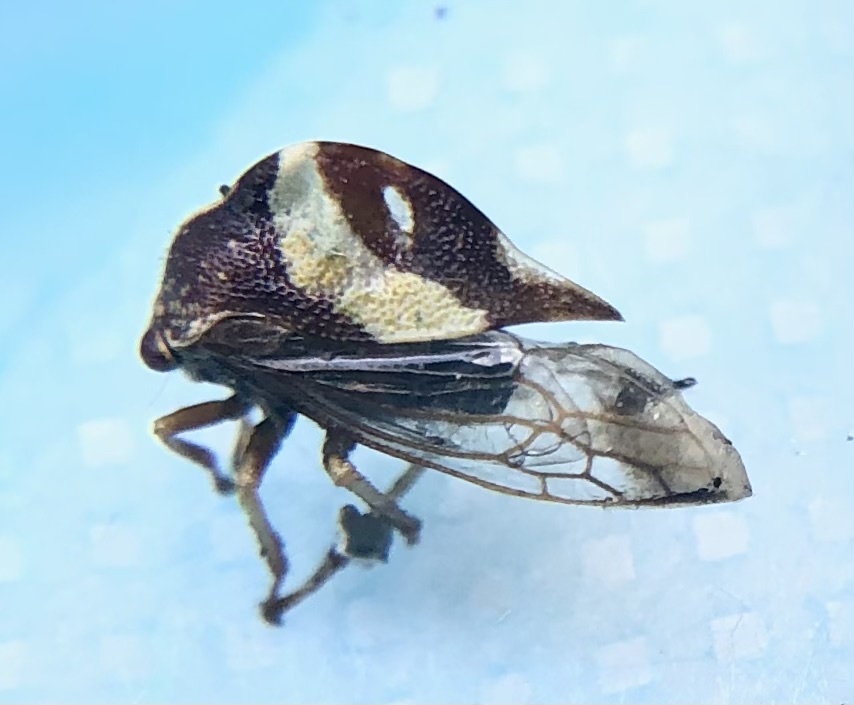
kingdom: Animalia
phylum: Arthropoda
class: Insecta
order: Hemiptera
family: Membracidae
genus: Smilia
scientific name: Smilia fasciata
